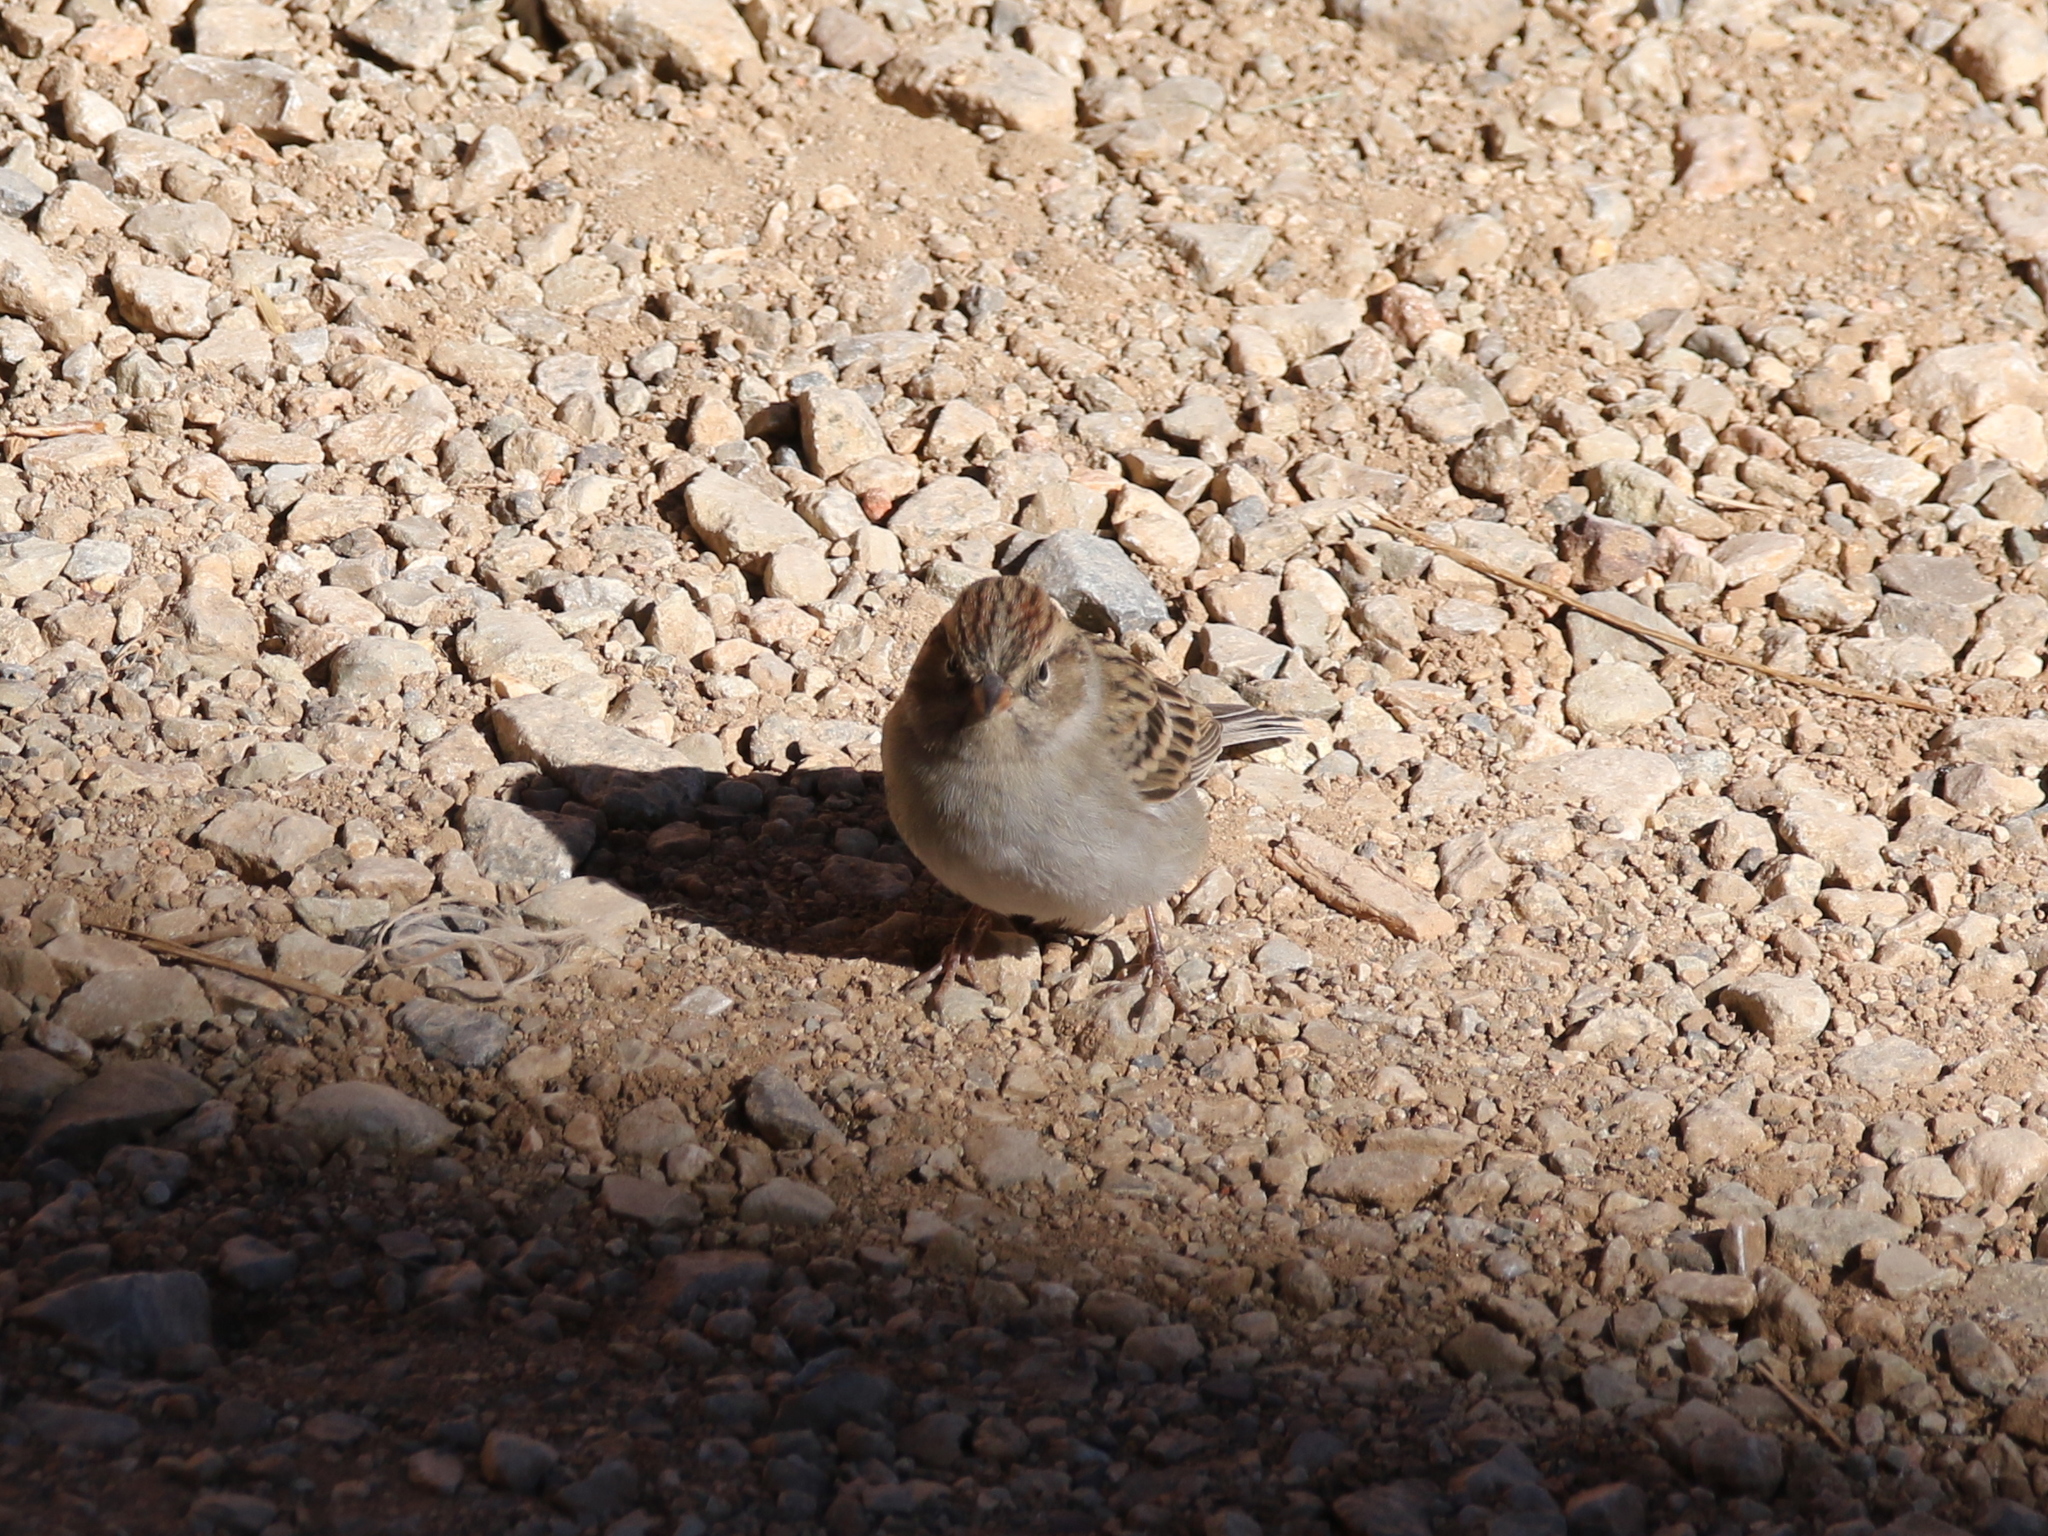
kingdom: Animalia
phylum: Chordata
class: Aves
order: Passeriformes
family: Passerellidae
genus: Spizella
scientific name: Spizella passerina
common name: Chipping sparrow
